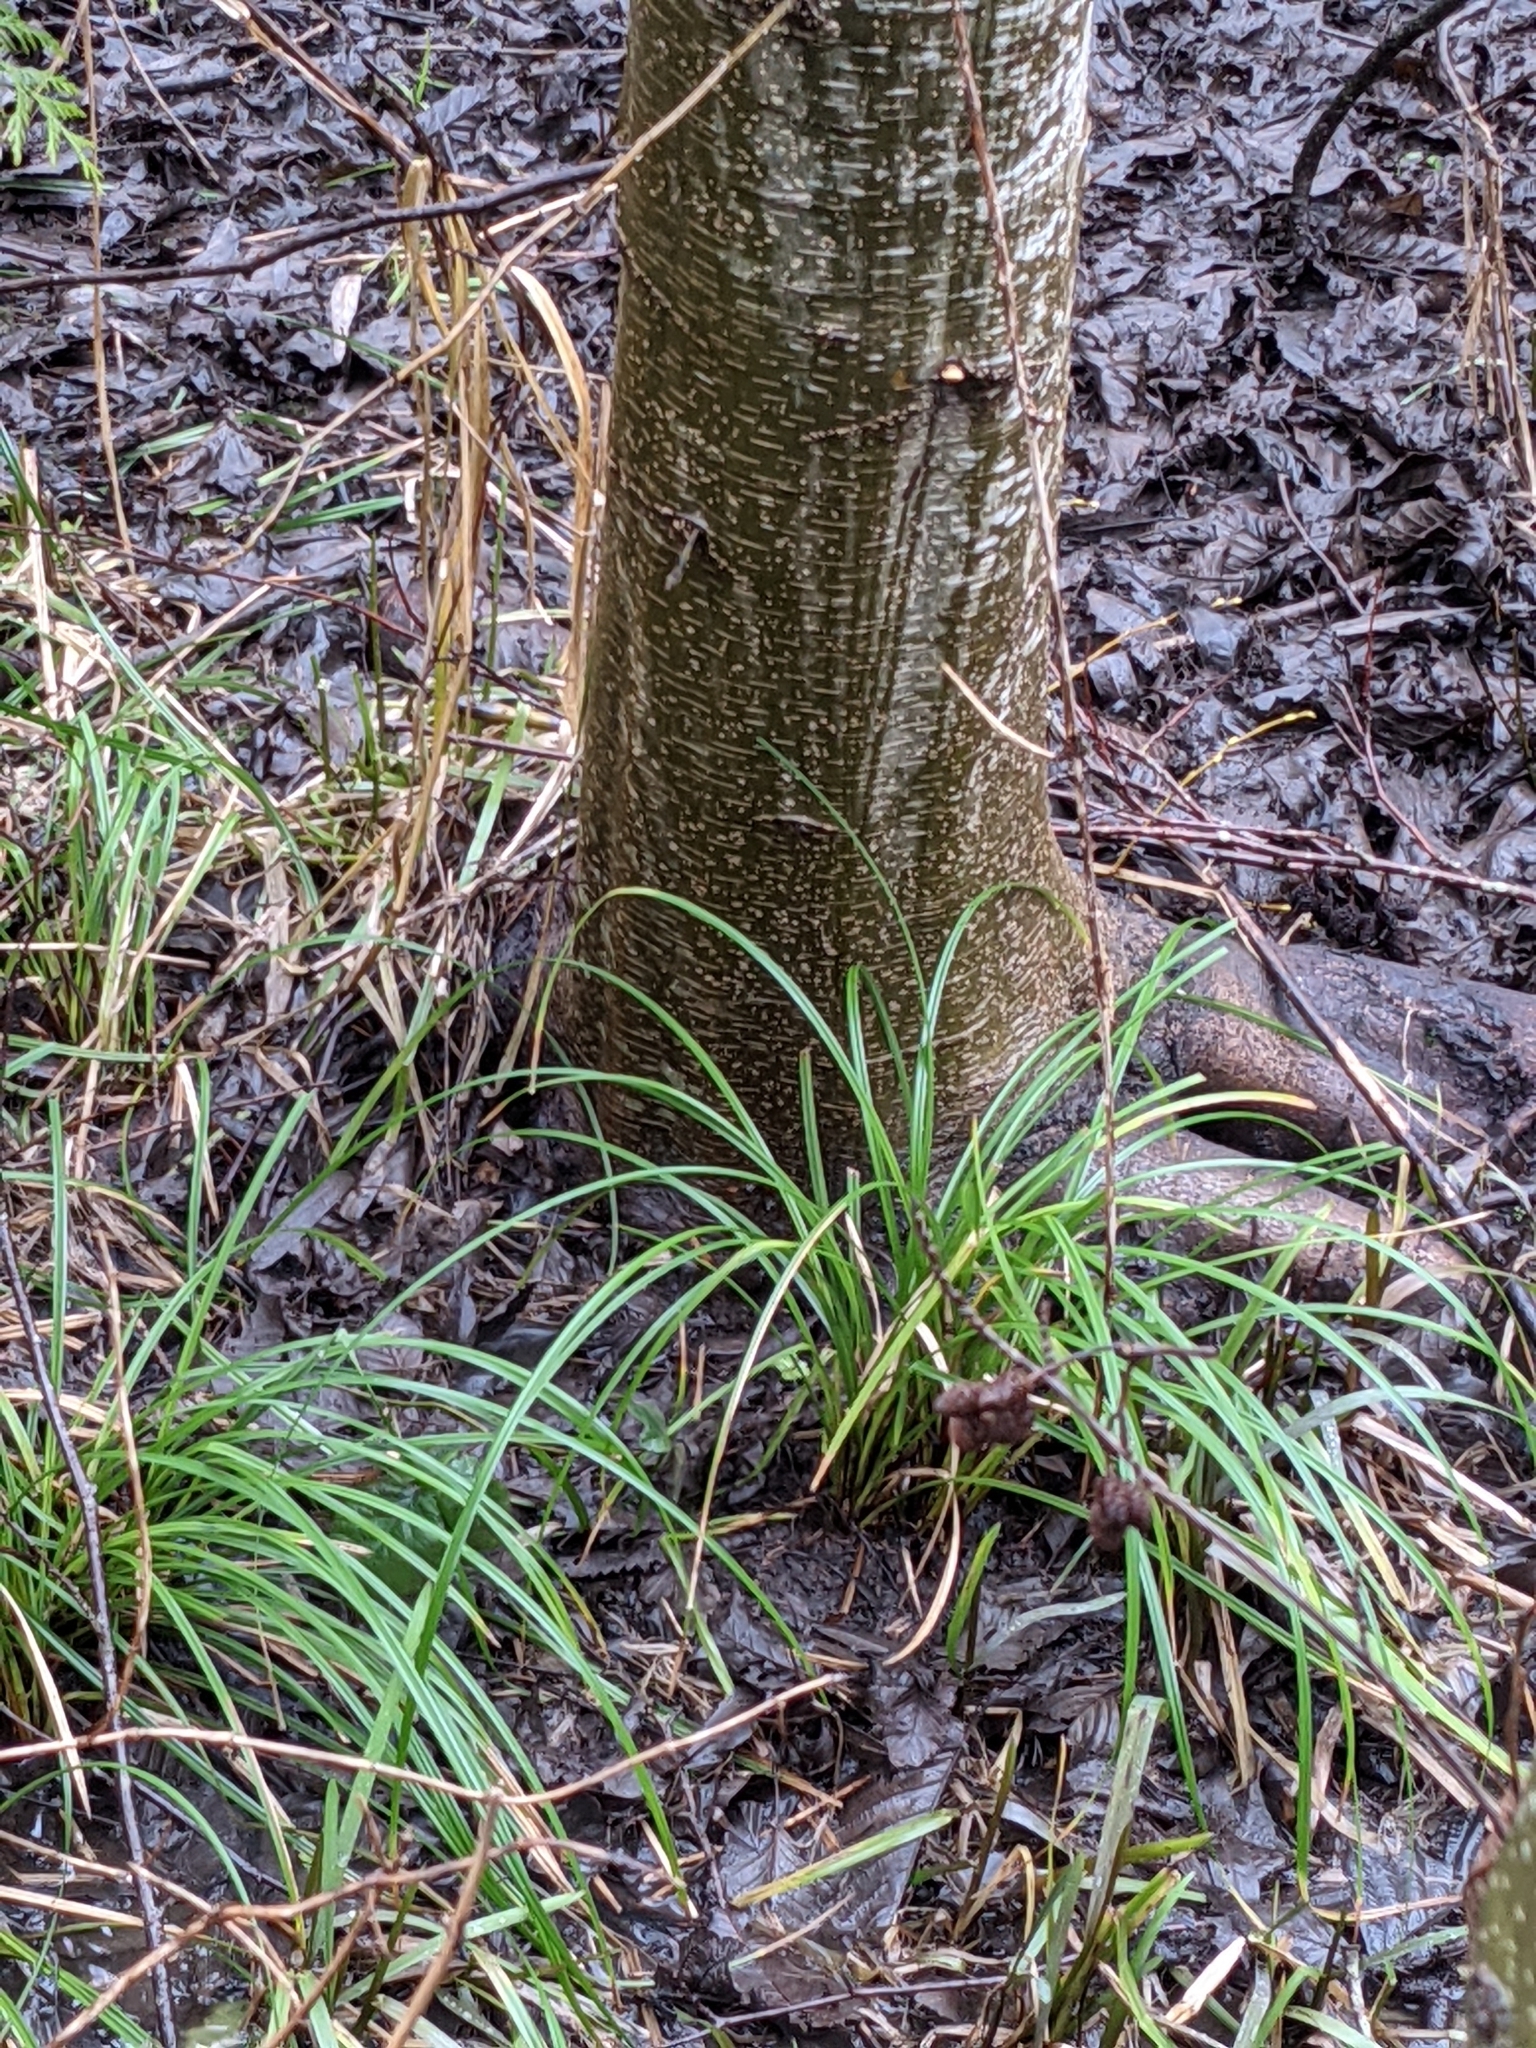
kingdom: Plantae
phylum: Tracheophyta
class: Liliopsida
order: Poales
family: Cyperaceae
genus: Carex
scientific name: Carex obnupta
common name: Slough sedge
